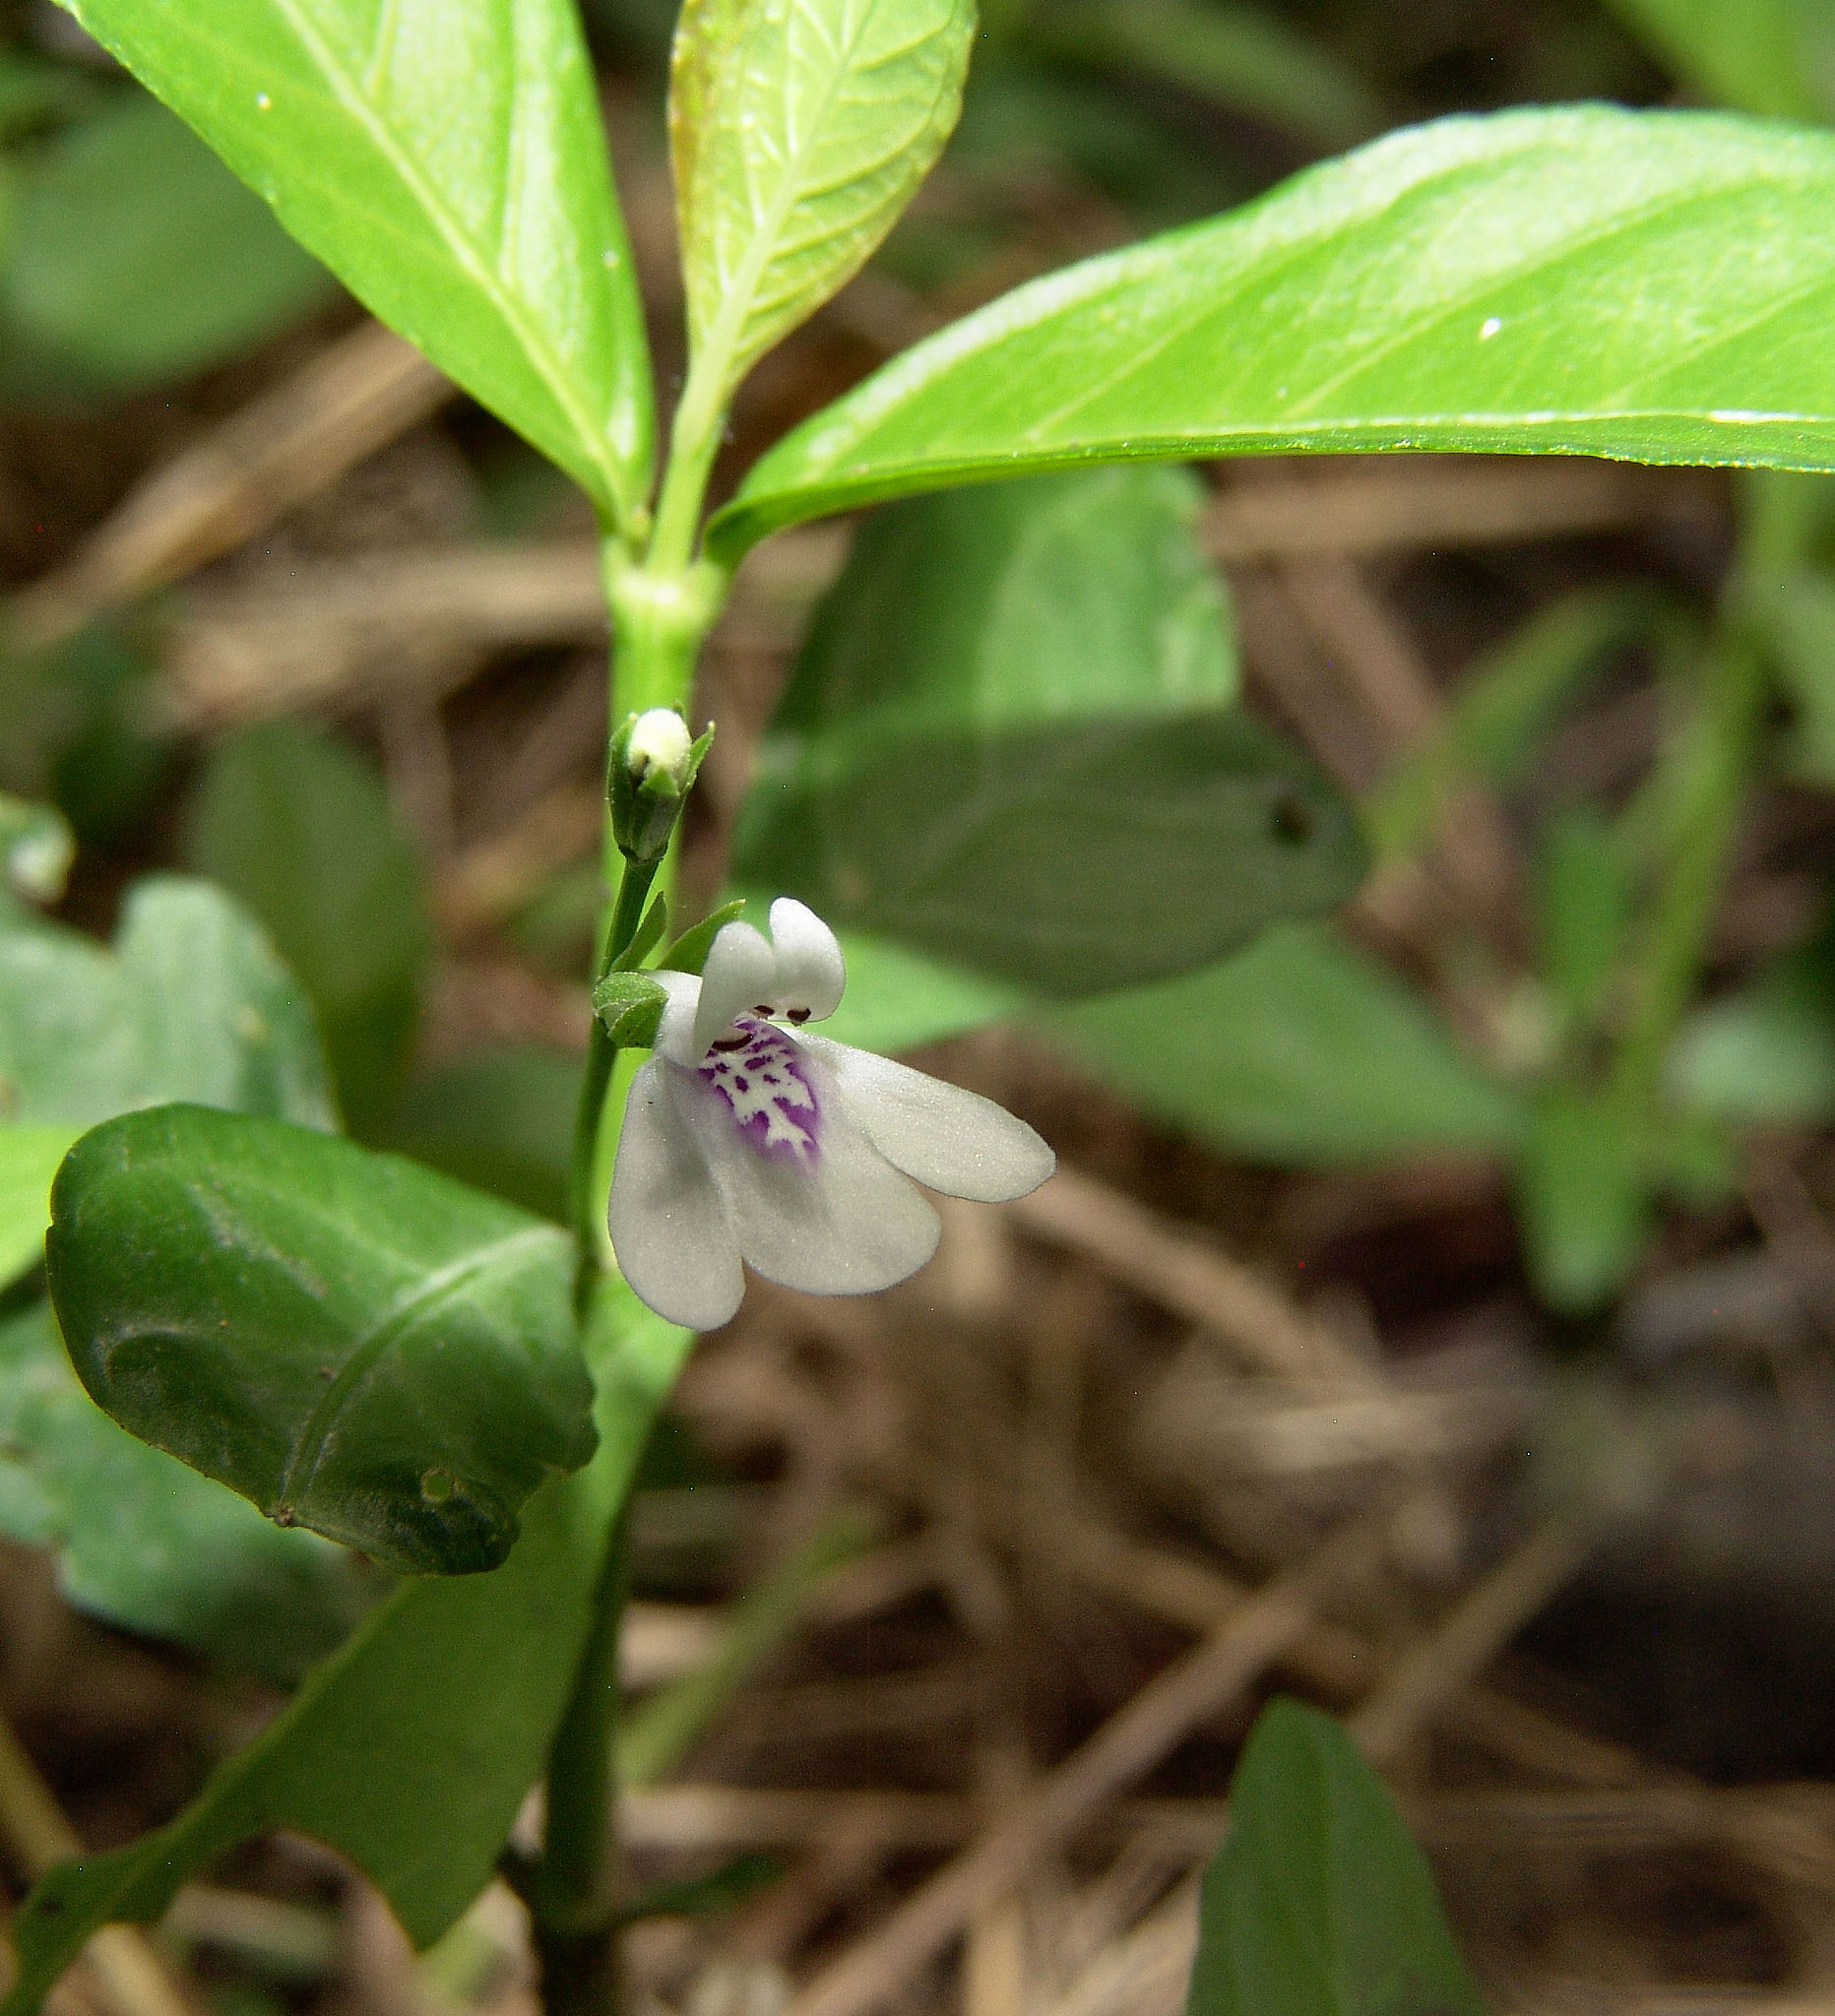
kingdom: Plantae
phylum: Tracheophyta
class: Magnoliopsida
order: Lamiales
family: Acanthaceae
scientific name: Acanthaceae
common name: Acanthaceae
